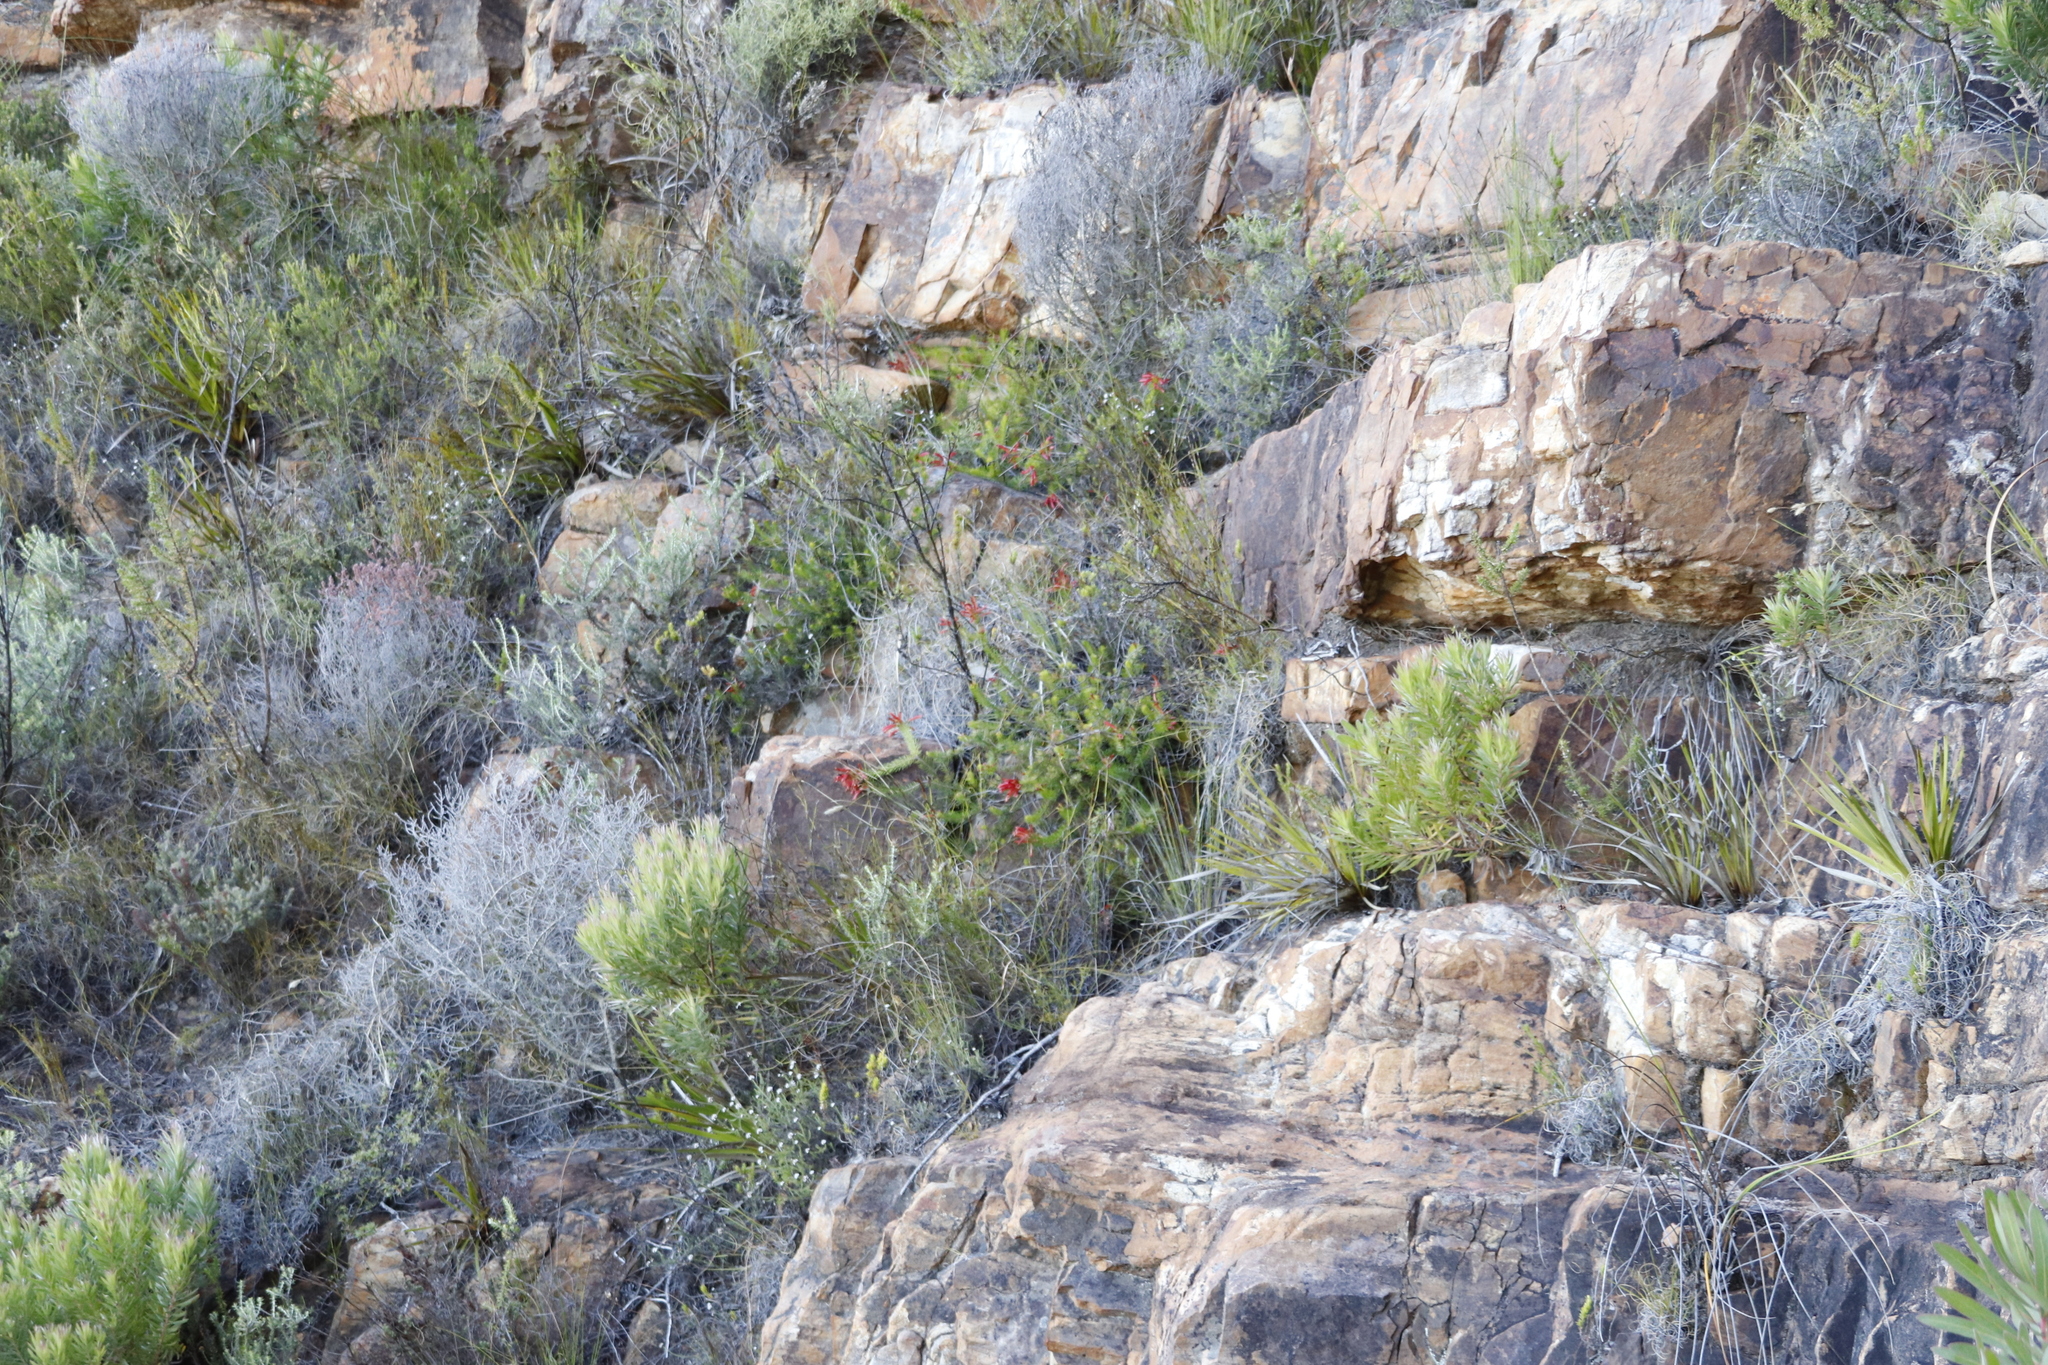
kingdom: Plantae
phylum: Tracheophyta
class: Magnoliopsida
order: Proteales
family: Proteaceae
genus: Leucadendron
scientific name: Leucadendron xanthoconus
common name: Sickle-leaf conebush
